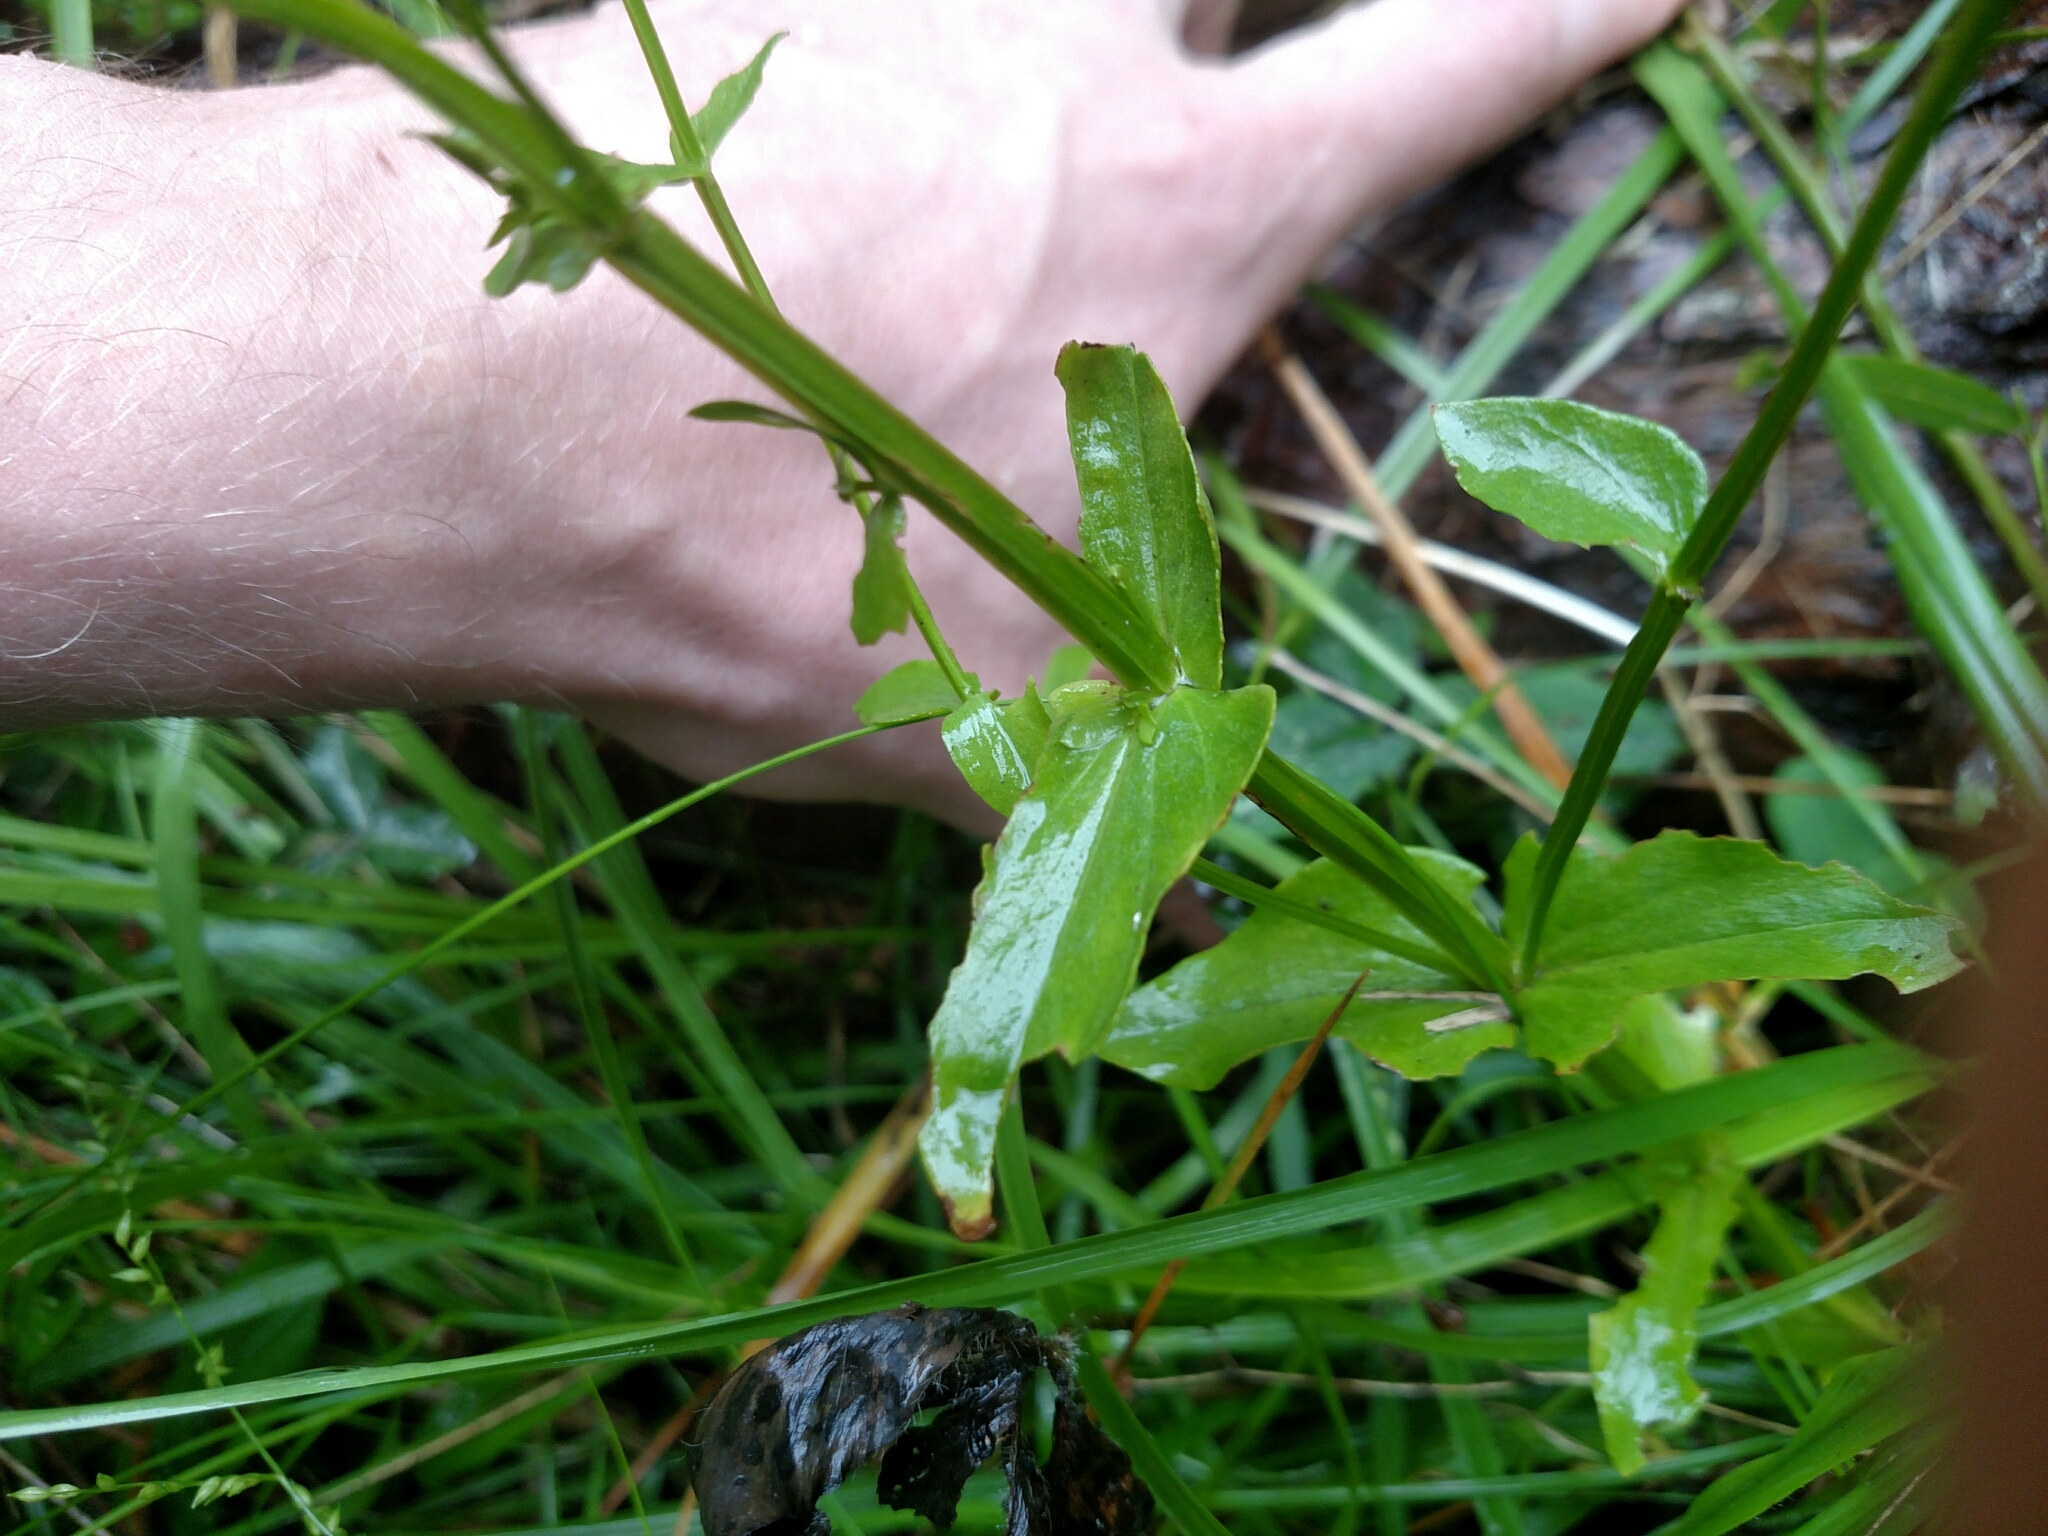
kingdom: Plantae
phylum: Tracheophyta
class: Magnoliopsida
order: Gentianales
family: Gentianaceae
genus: Sabatia
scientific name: Sabatia angularis
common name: Rose-pink
